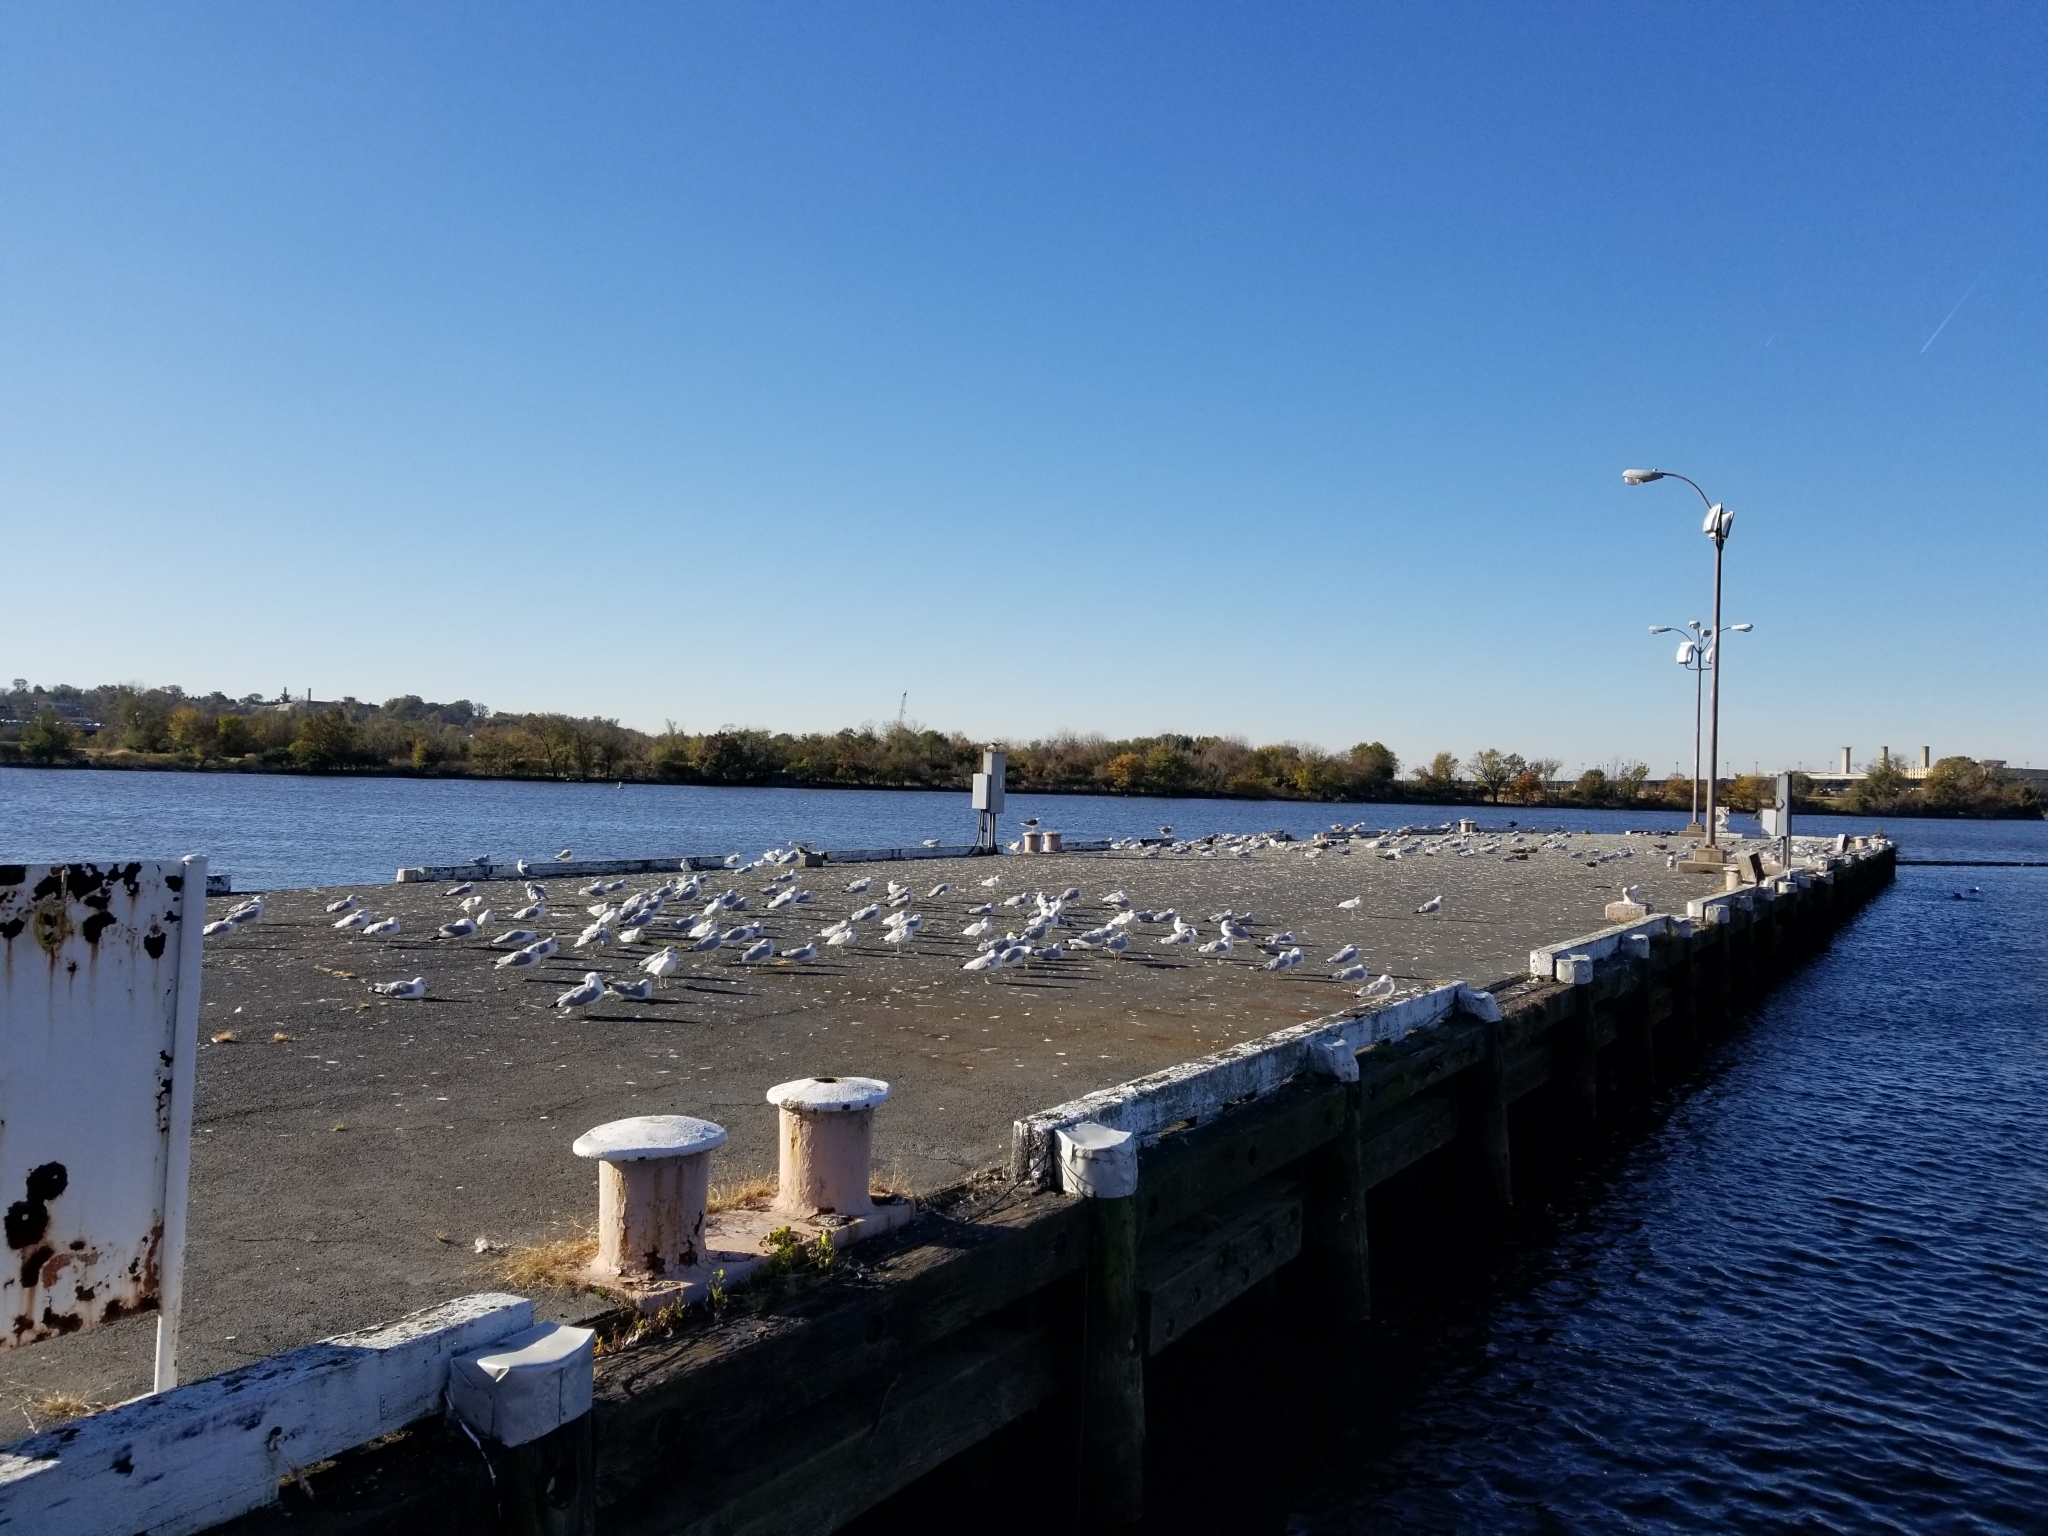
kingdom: Animalia
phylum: Chordata
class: Aves
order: Charadriiformes
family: Laridae
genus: Larus
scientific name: Larus delawarensis
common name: Ring-billed gull
